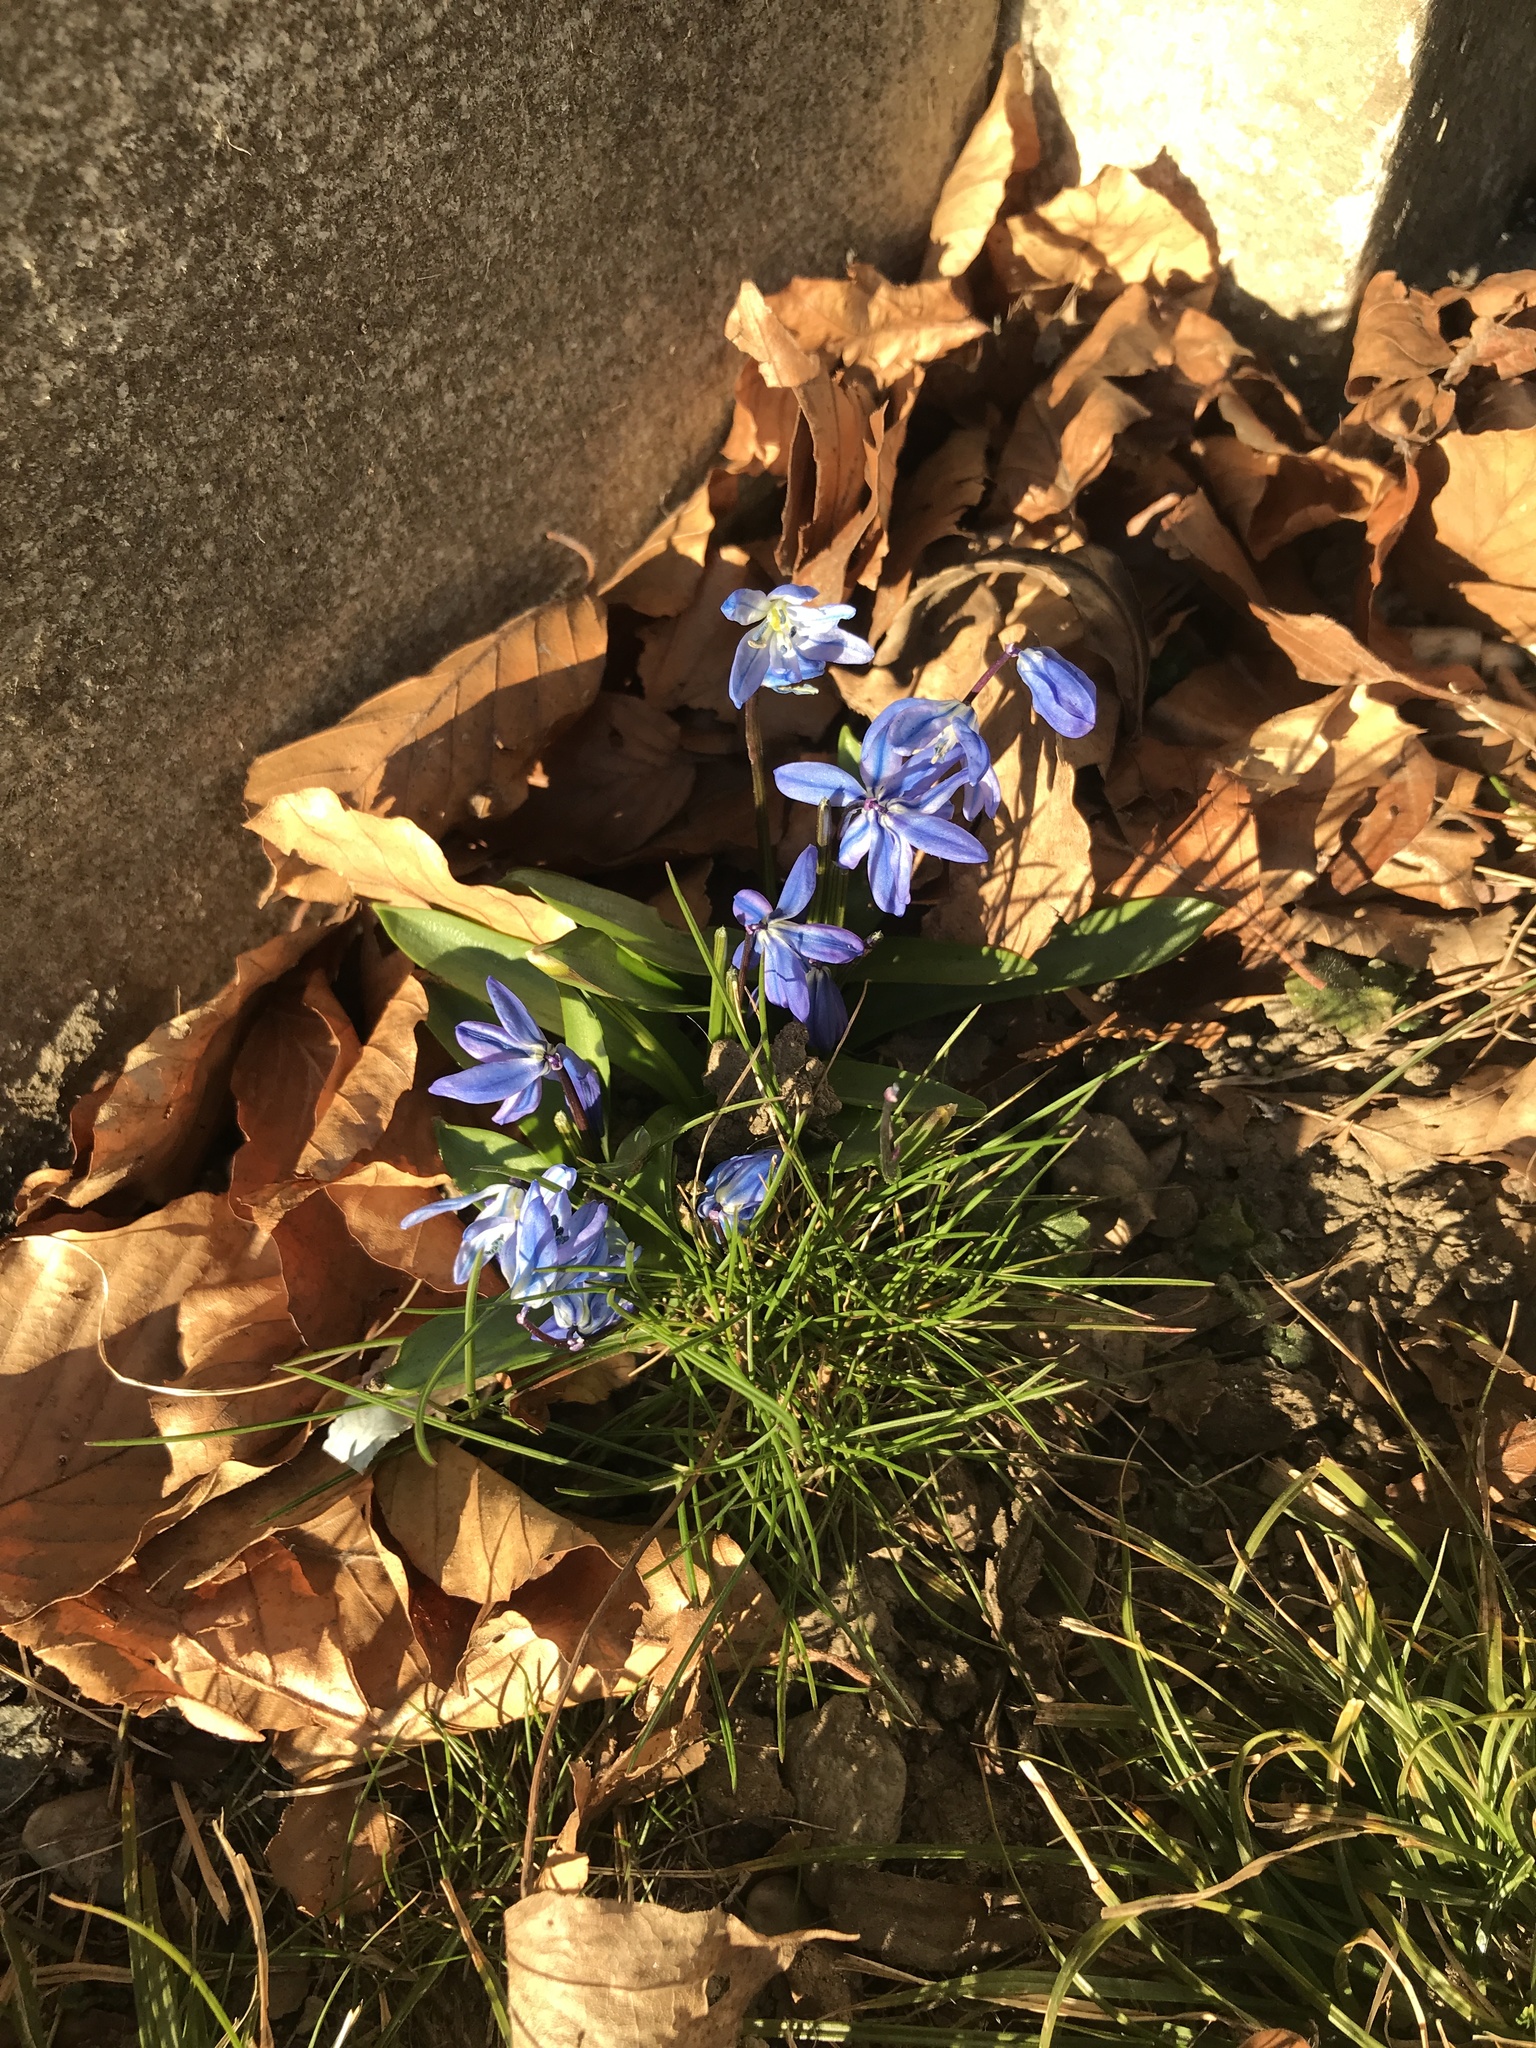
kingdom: Plantae
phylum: Tracheophyta
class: Liliopsida
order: Asparagales
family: Asparagaceae
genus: Scilla
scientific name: Scilla siberica
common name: Siberian squill
